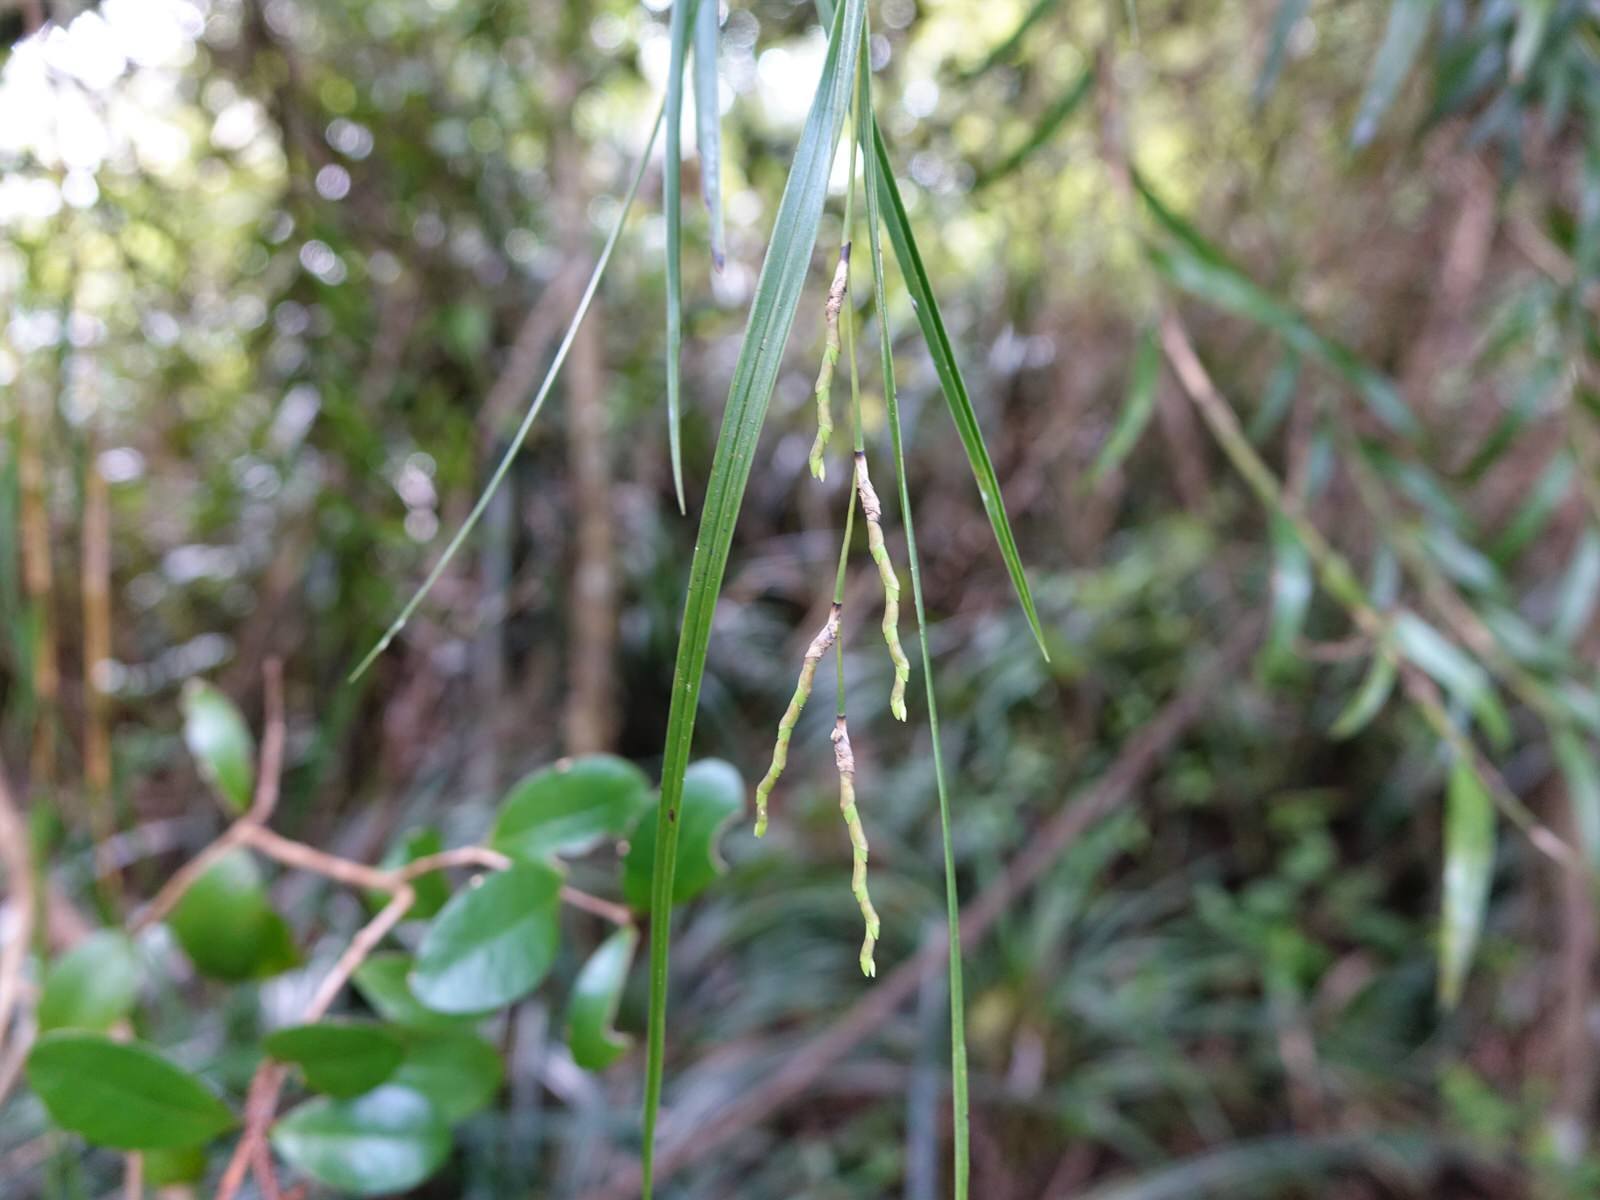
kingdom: Plantae
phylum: Tracheophyta
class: Liliopsida
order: Asparagales
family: Orchidaceae
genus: Earina
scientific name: Earina mucronata
